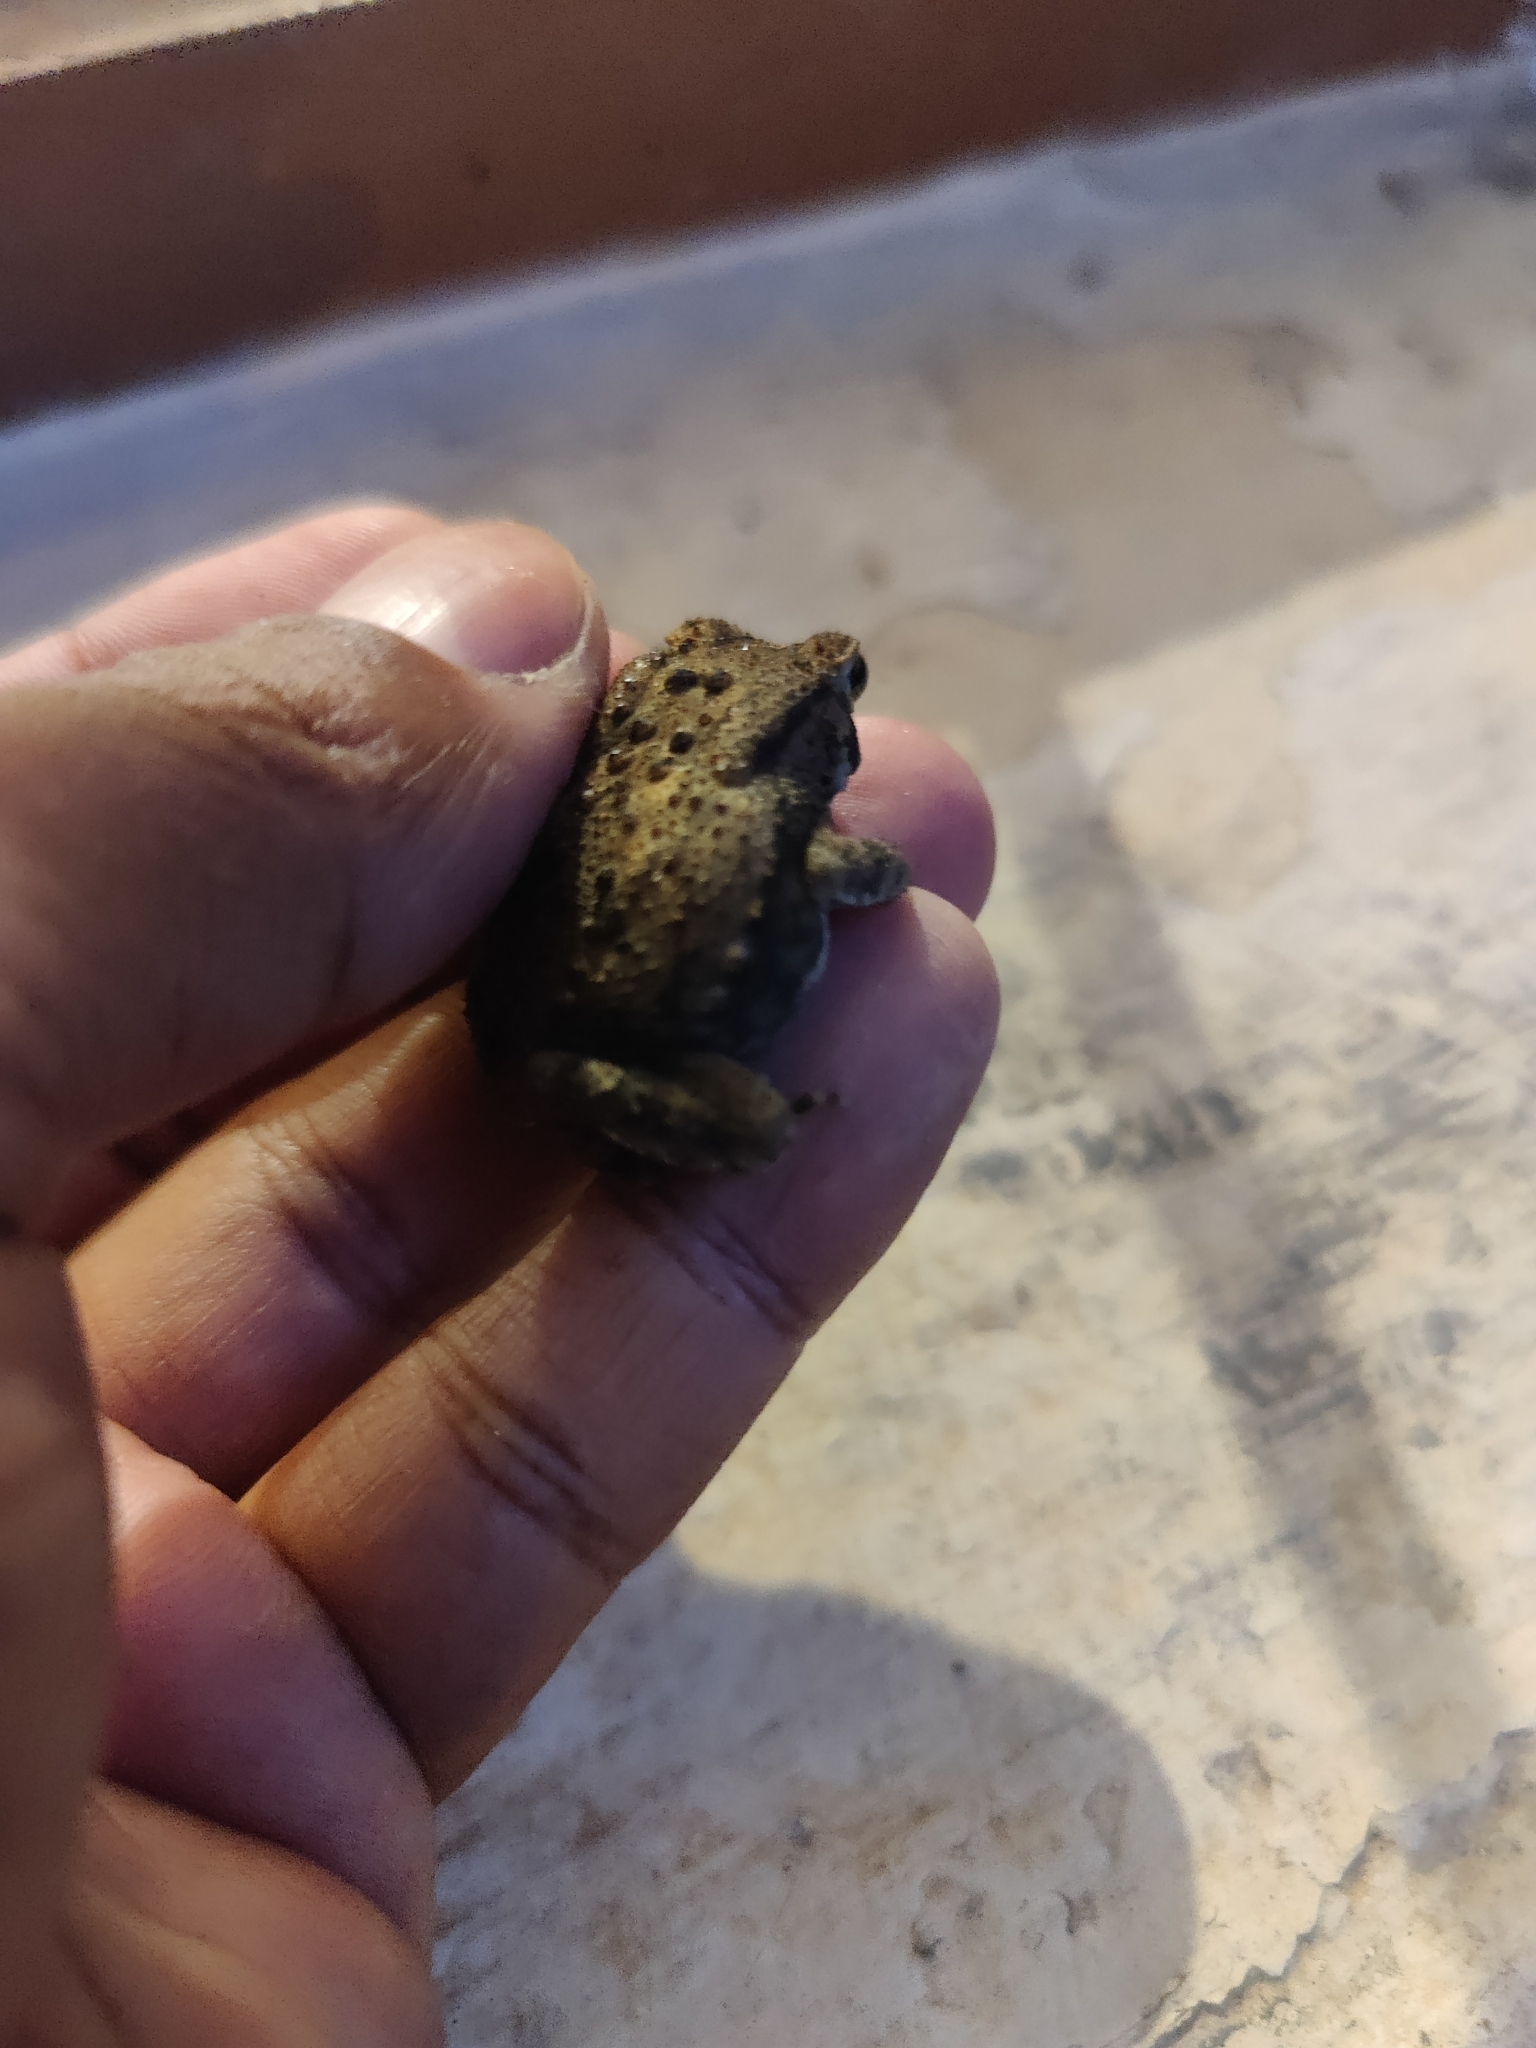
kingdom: Animalia
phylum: Chordata
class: Amphibia
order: Anura
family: Bufonidae
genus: Duttaphrynus
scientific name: Duttaphrynus melanostictus
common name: Common sunda toad
